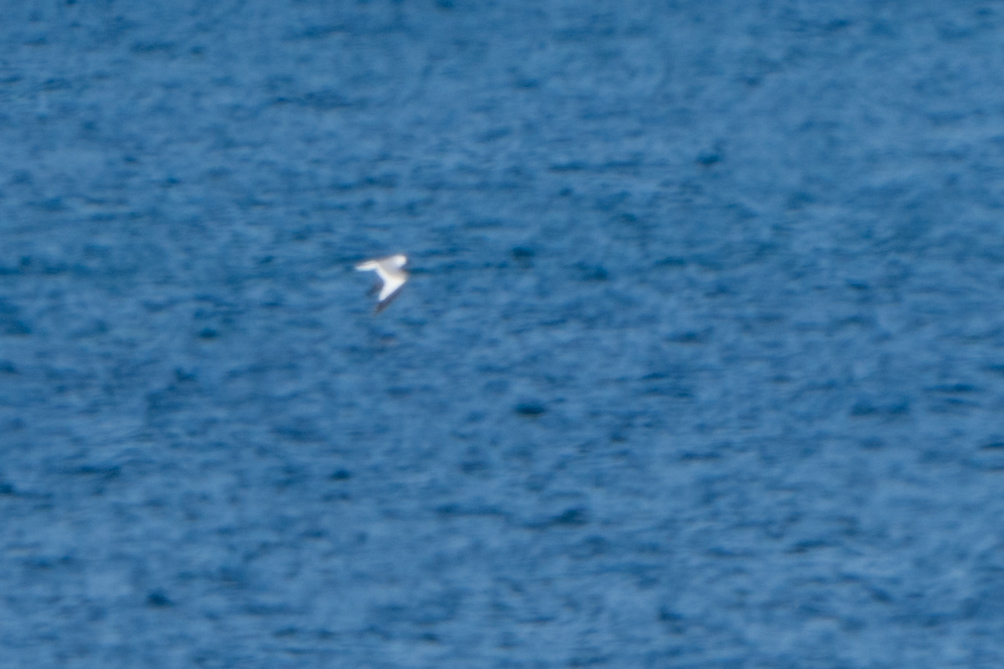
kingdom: Animalia
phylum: Chordata
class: Aves
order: Charadriiformes
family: Laridae
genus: Xema
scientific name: Xema sabini
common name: Sabine's gull
